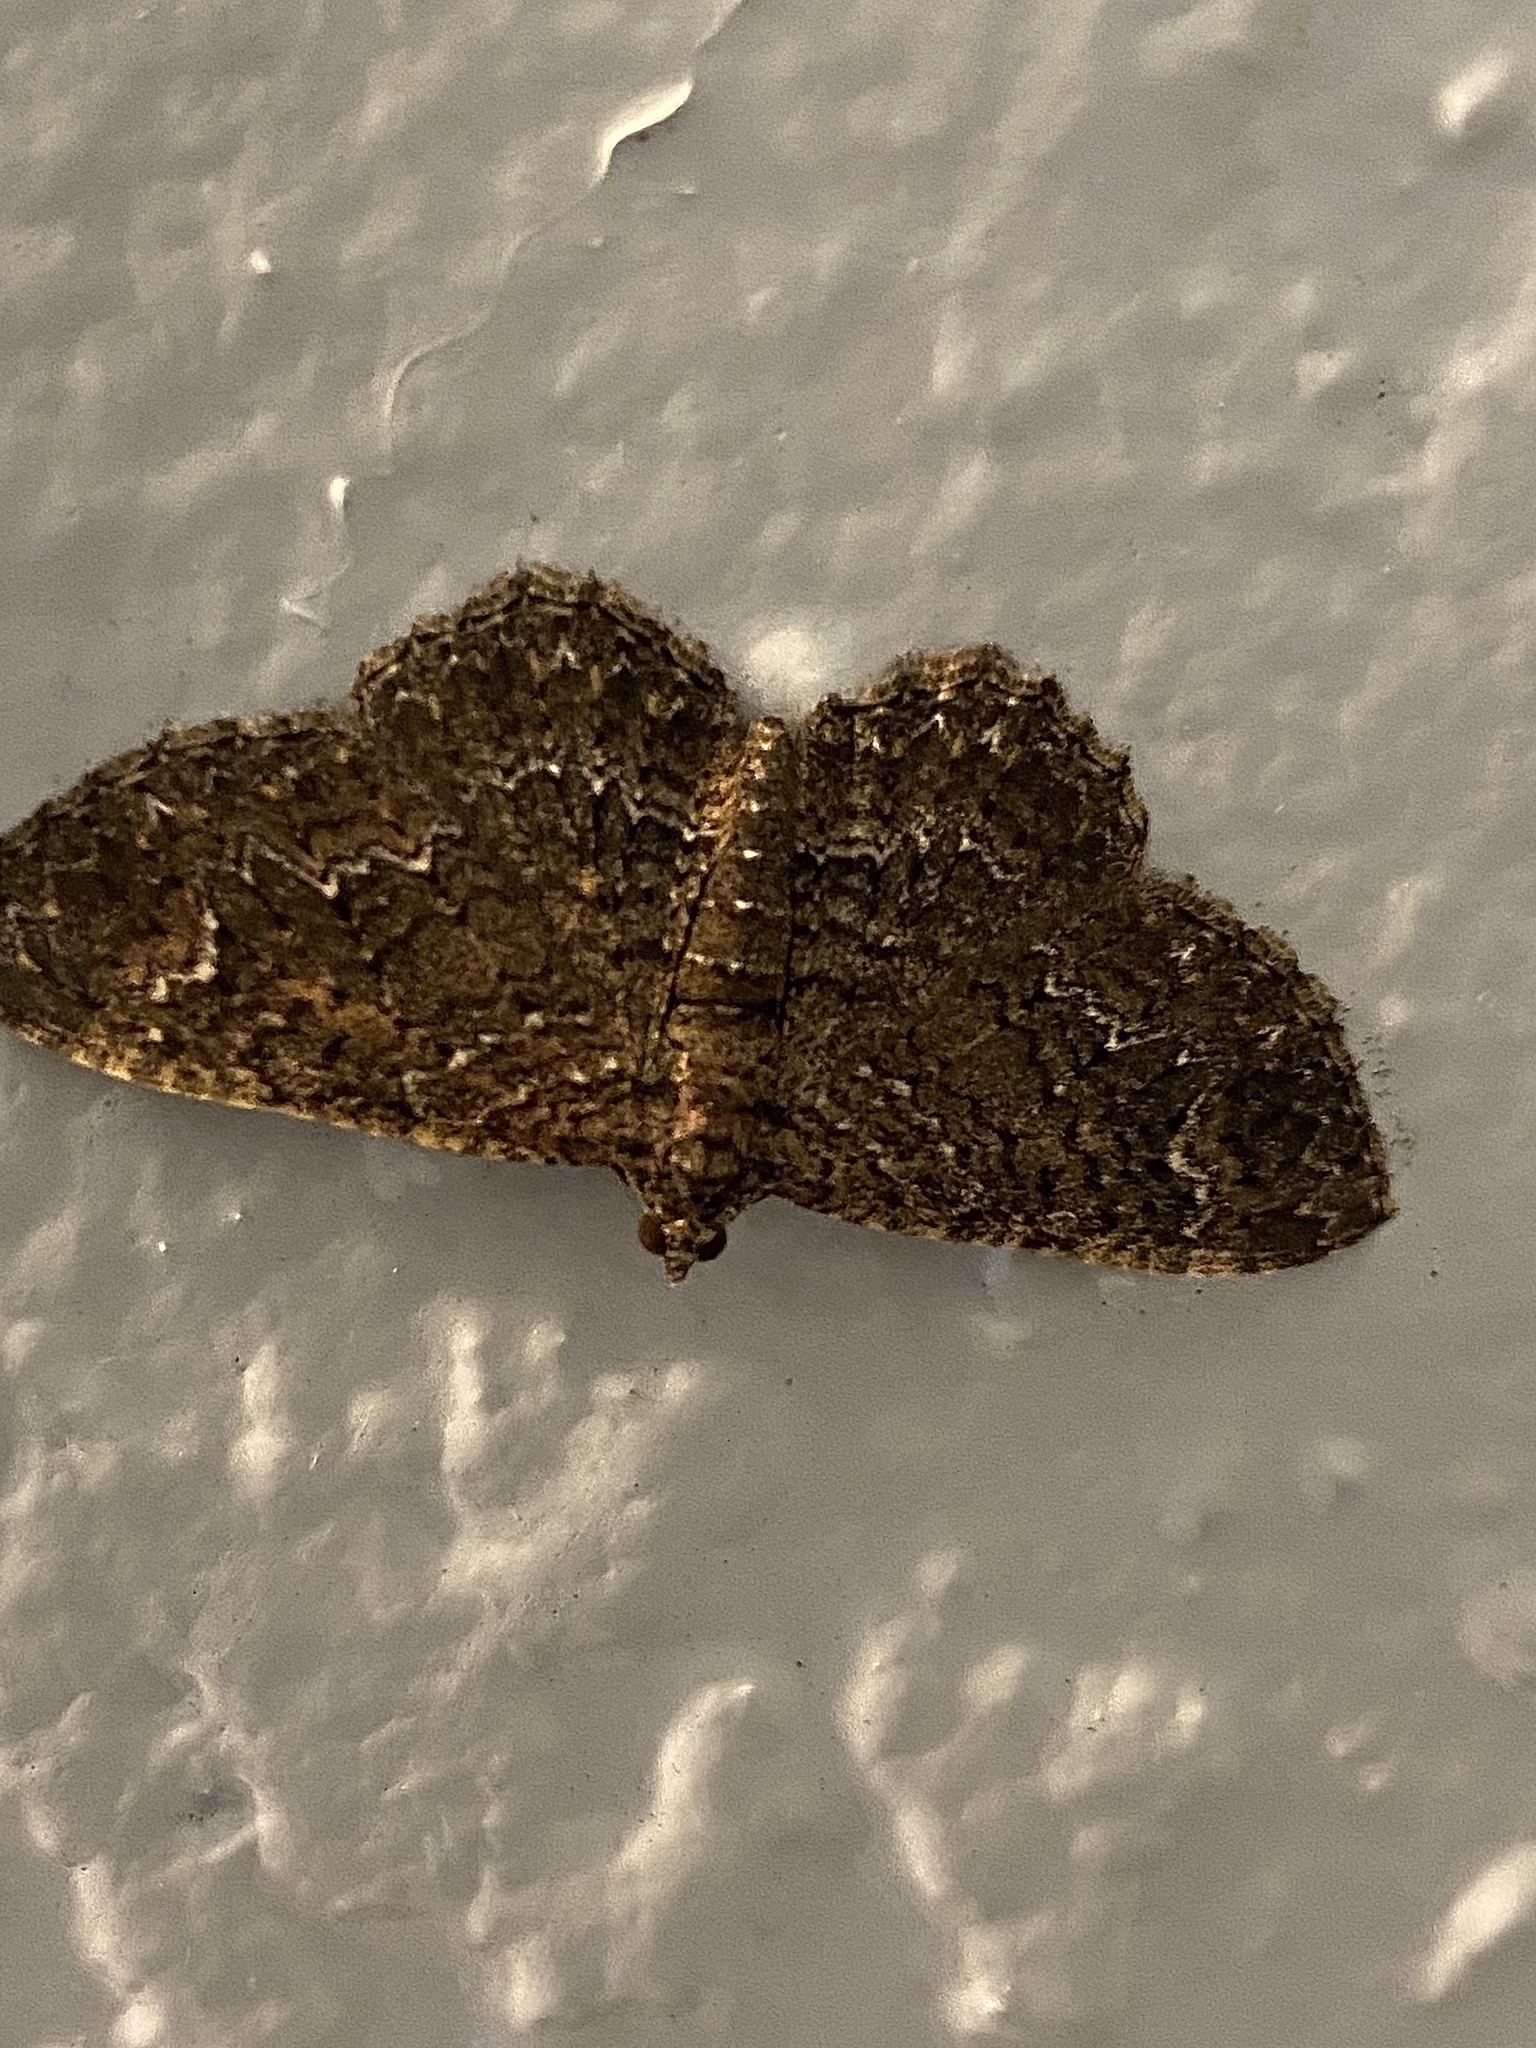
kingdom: Animalia
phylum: Arthropoda
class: Insecta
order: Lepidoptera
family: Geometridae
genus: Disclisioprocta
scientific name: Disclisioprocta stellata
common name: Somber carpet
